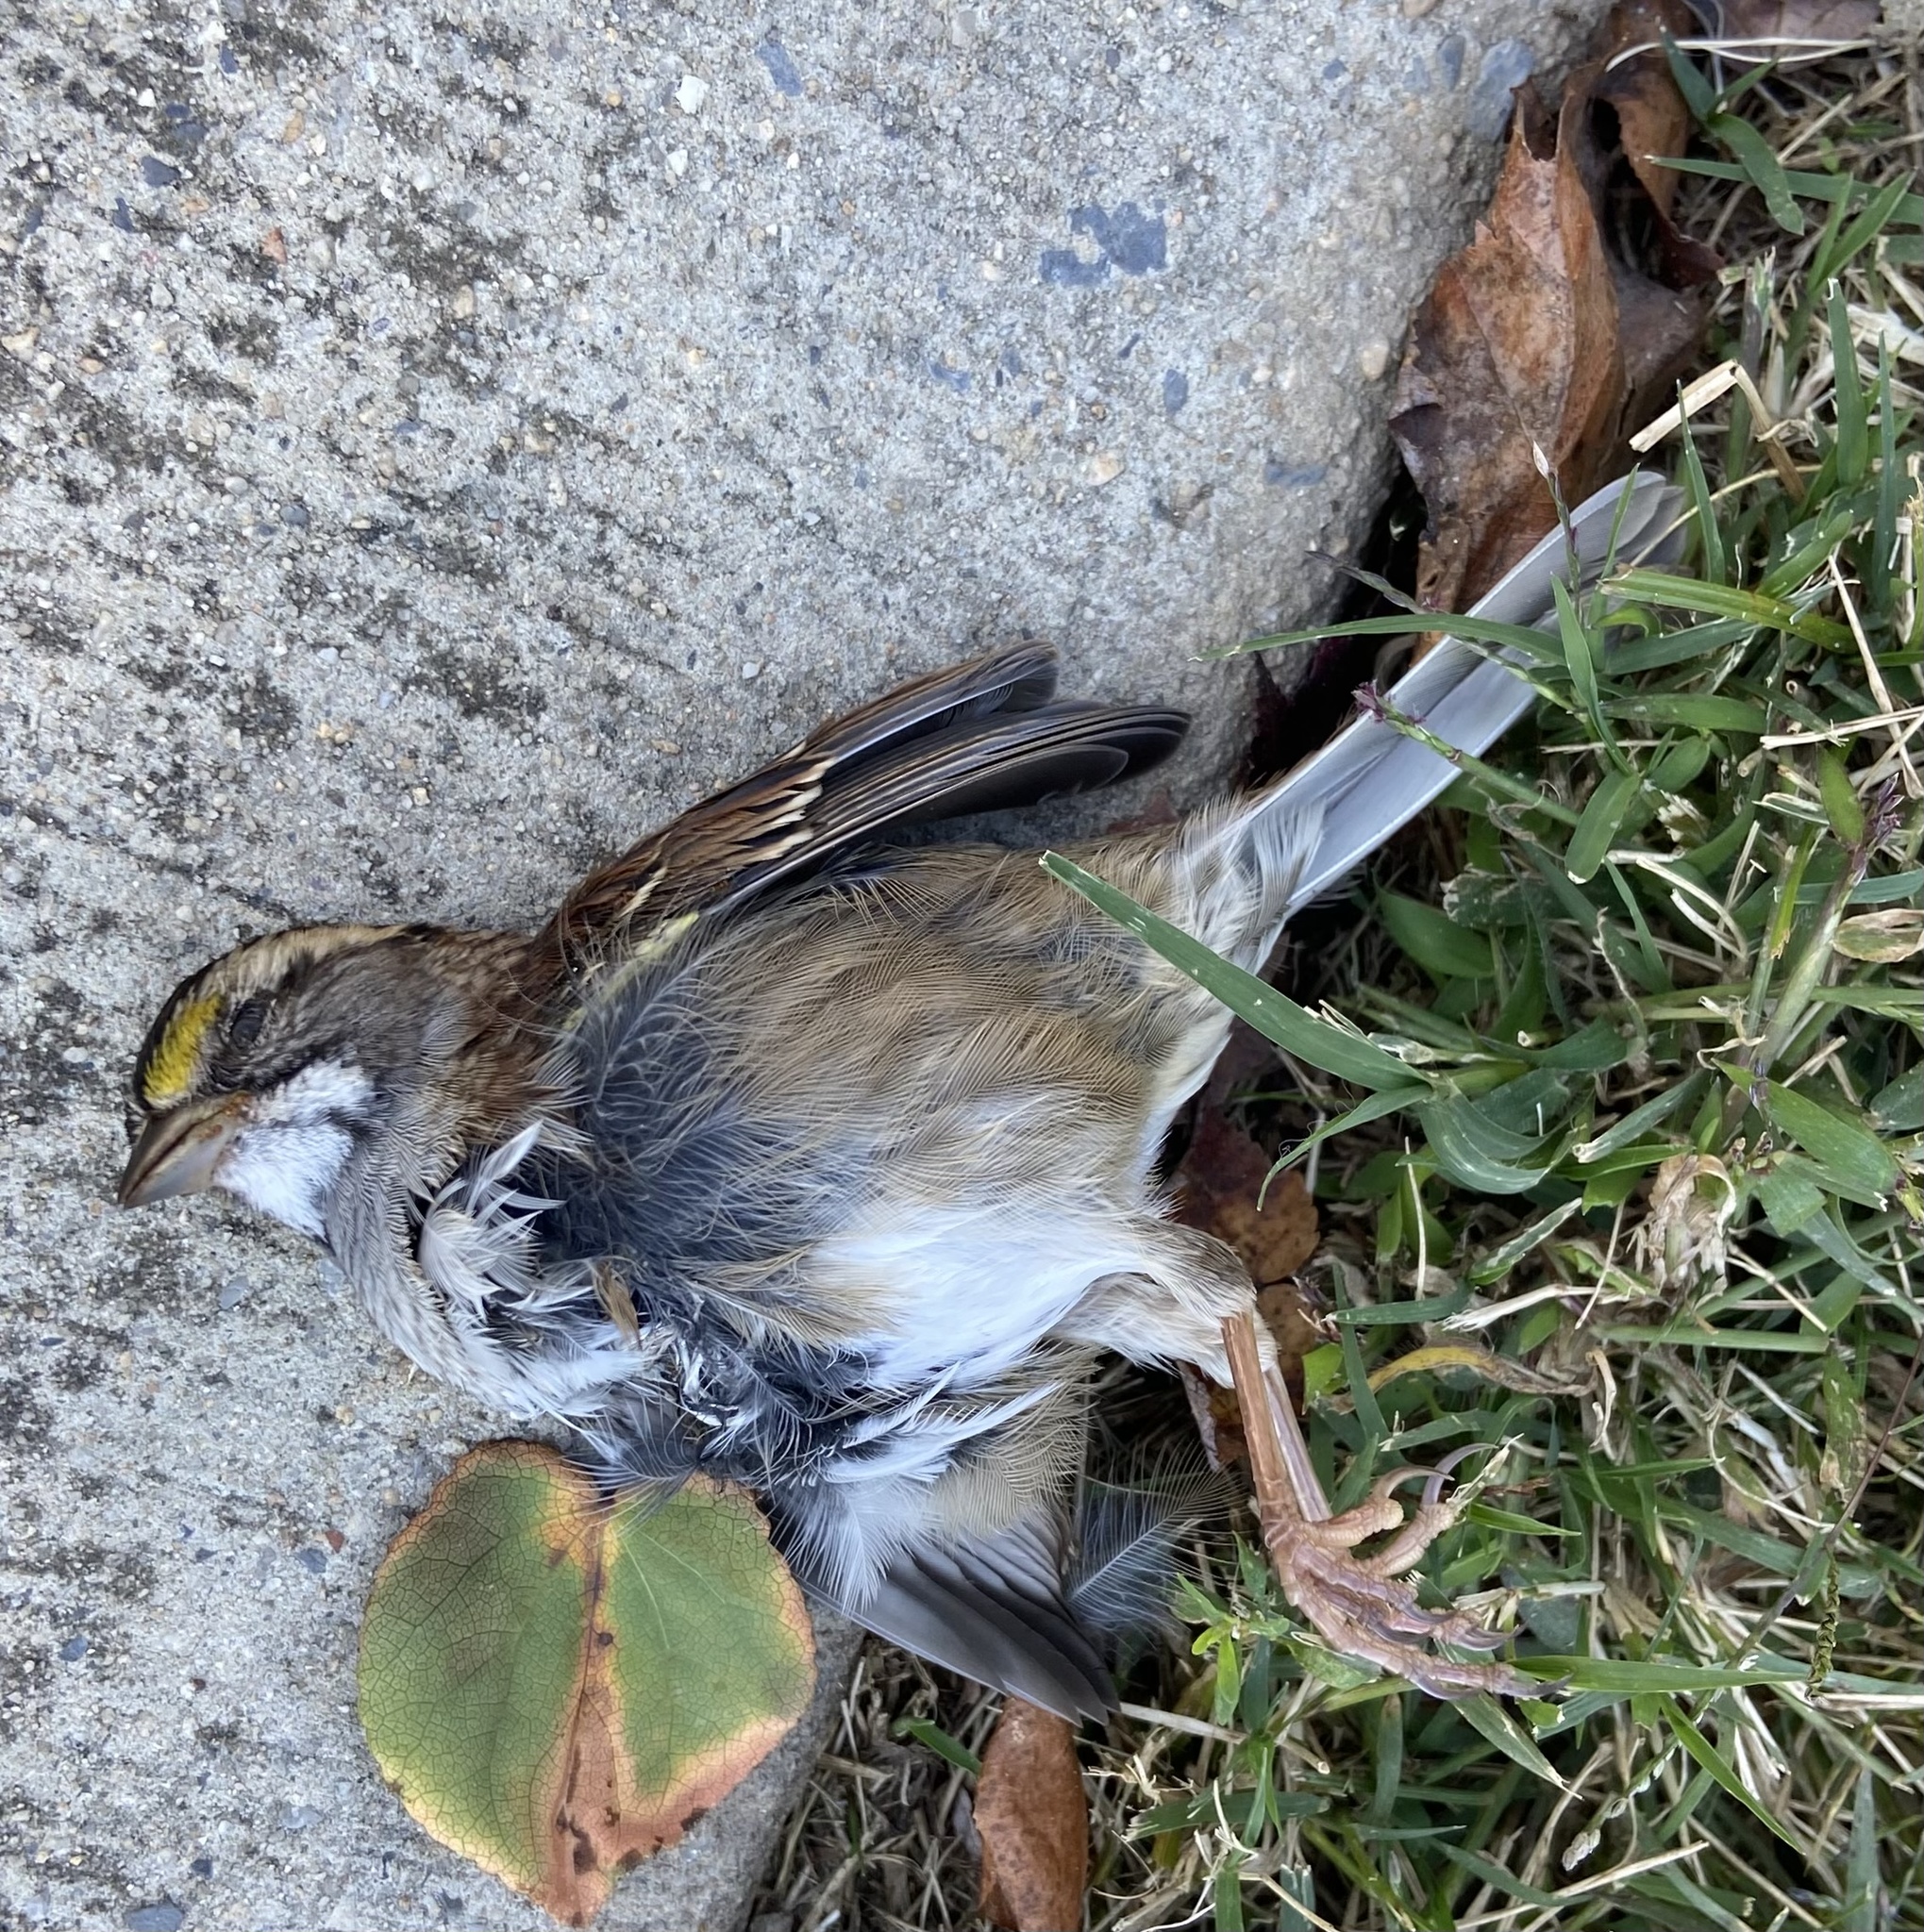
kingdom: Animalia
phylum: Chordata
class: Aves
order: Passeriformes
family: Passerellidae
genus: Zonotrichia
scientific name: Zonotrichia albicollis
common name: White-throated sparrow
